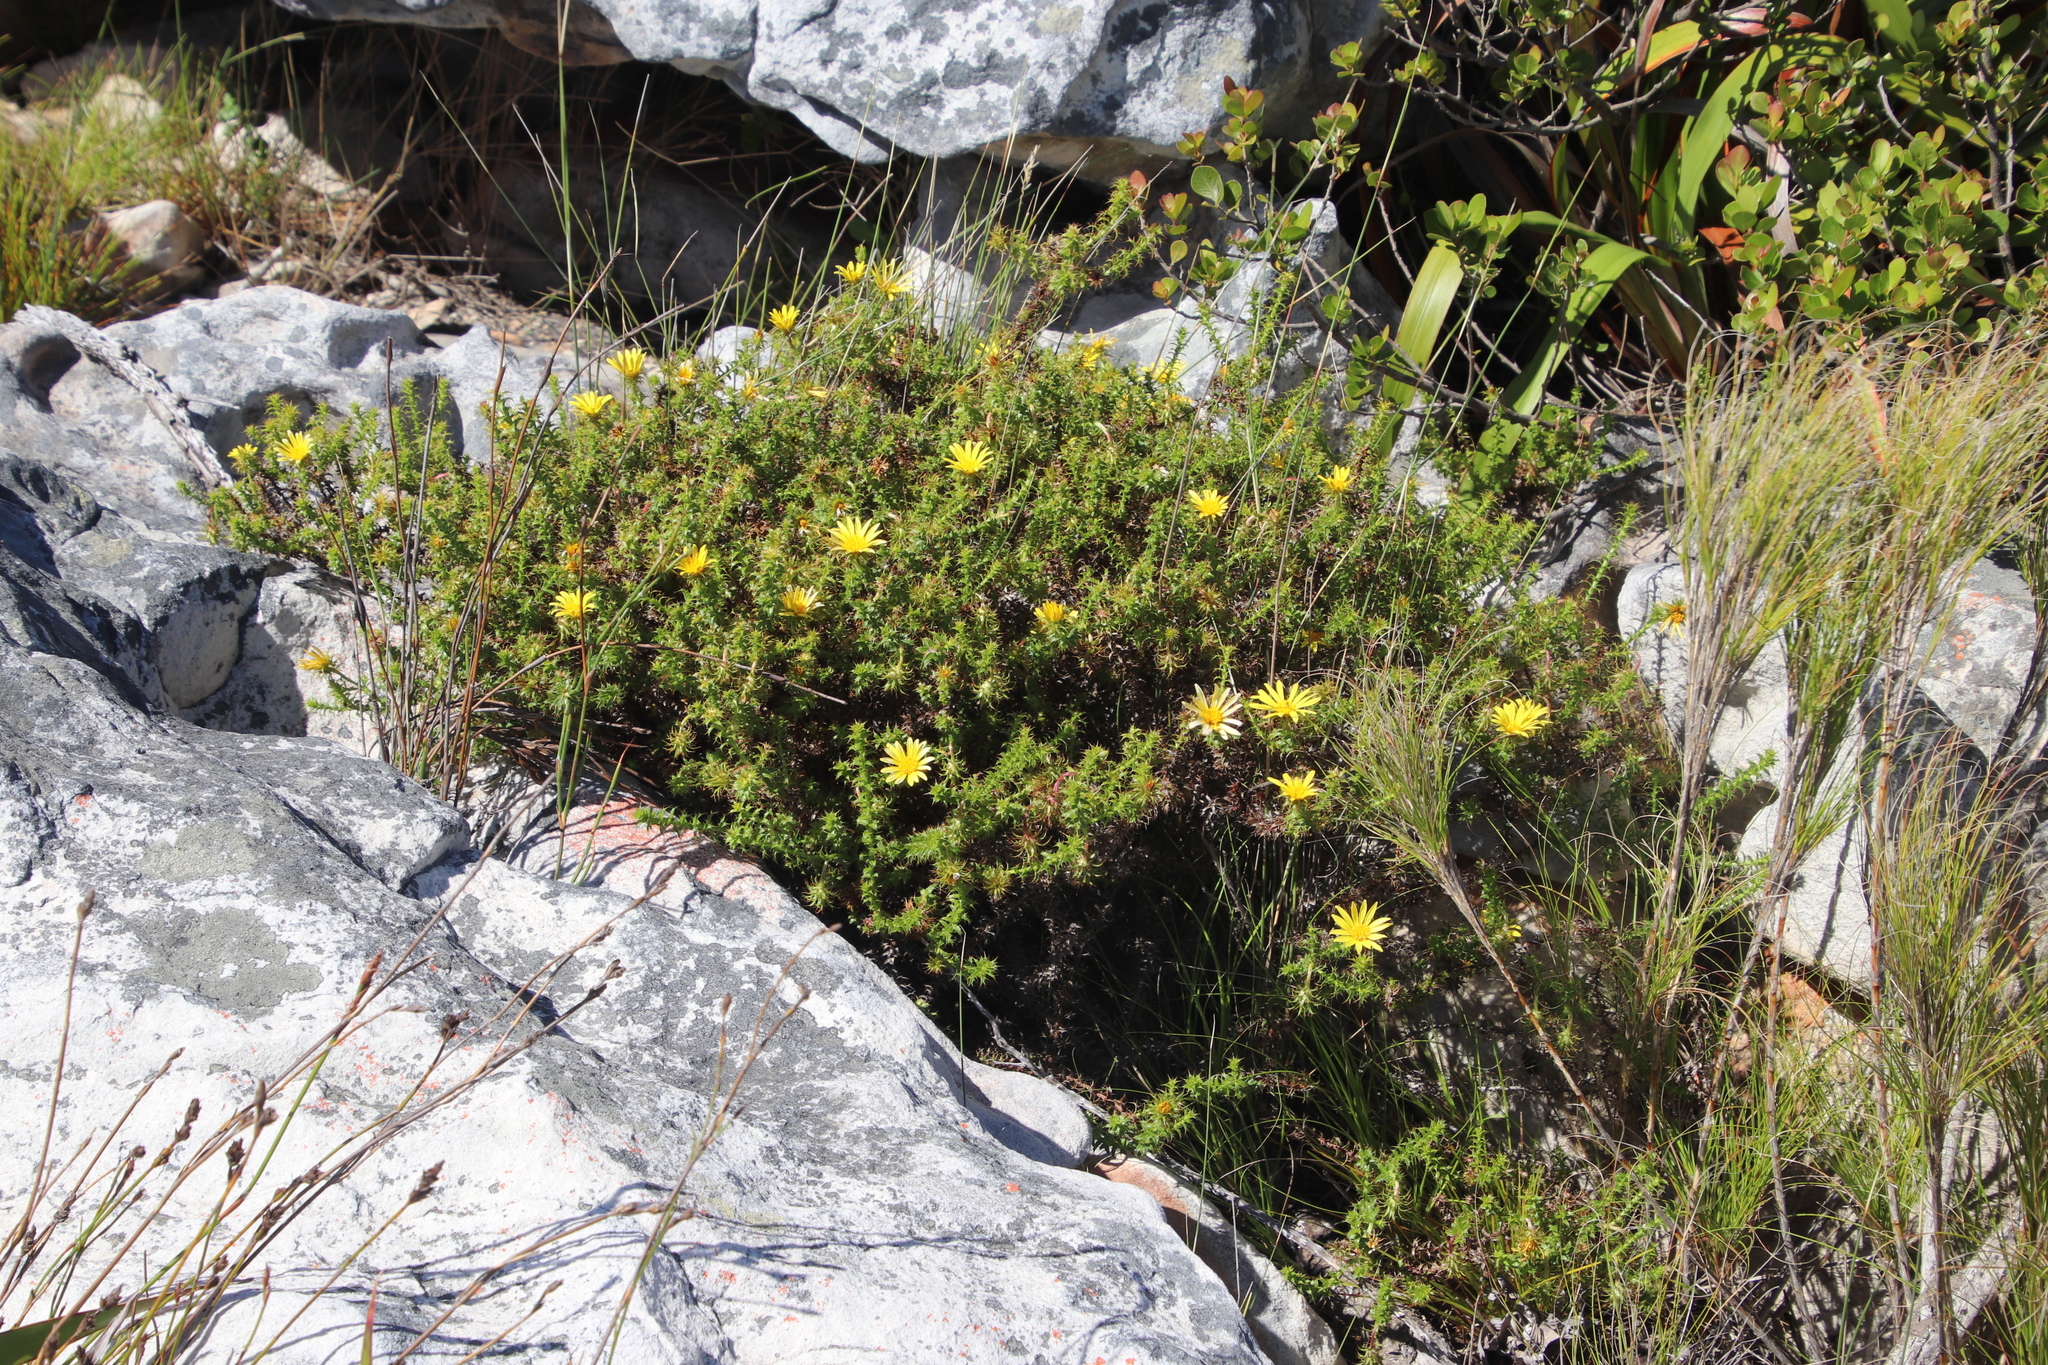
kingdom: Plantae
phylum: Tracheophyta
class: Magnoliopsida
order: Asterales
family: Asteraceae
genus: Cullumia
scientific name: Cullumia setosa
